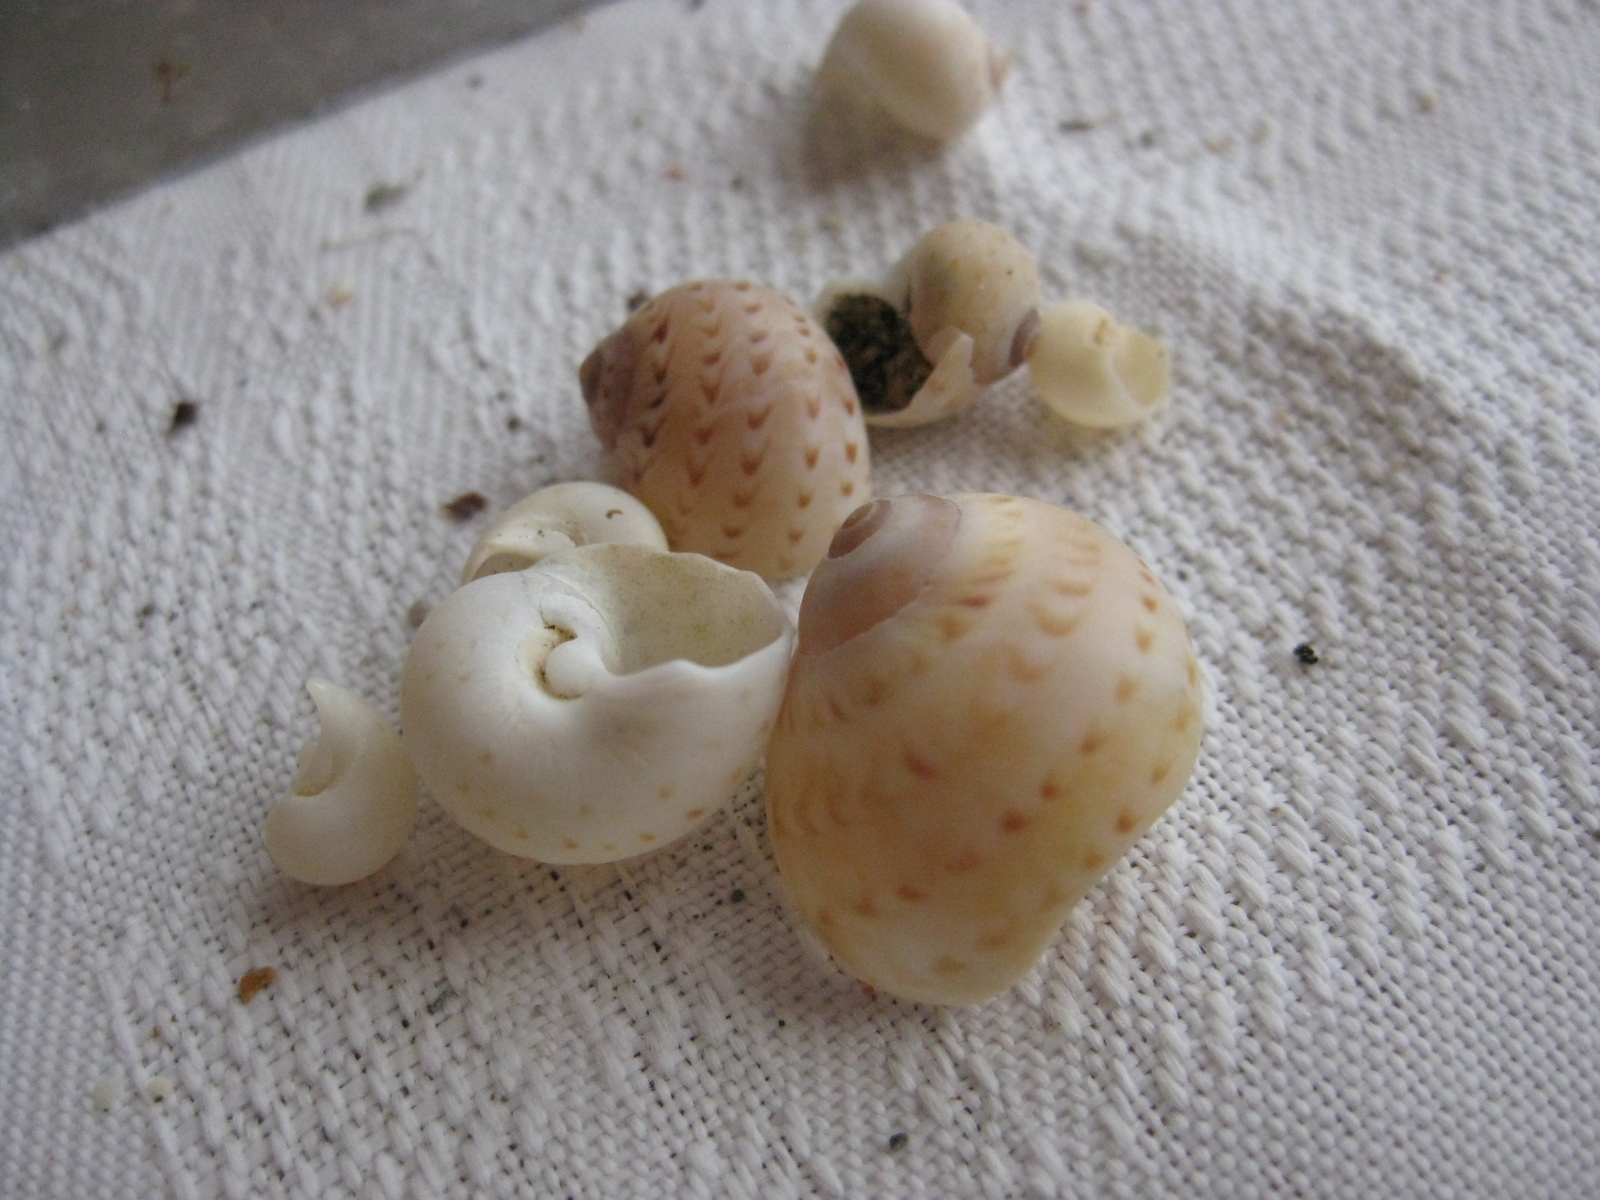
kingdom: Animalia
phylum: Mollusca
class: Gastropoda
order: Littorinimorpha
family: Naticidae
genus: Tanea
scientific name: Tanea zelandica
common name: New zealand moonsnail
